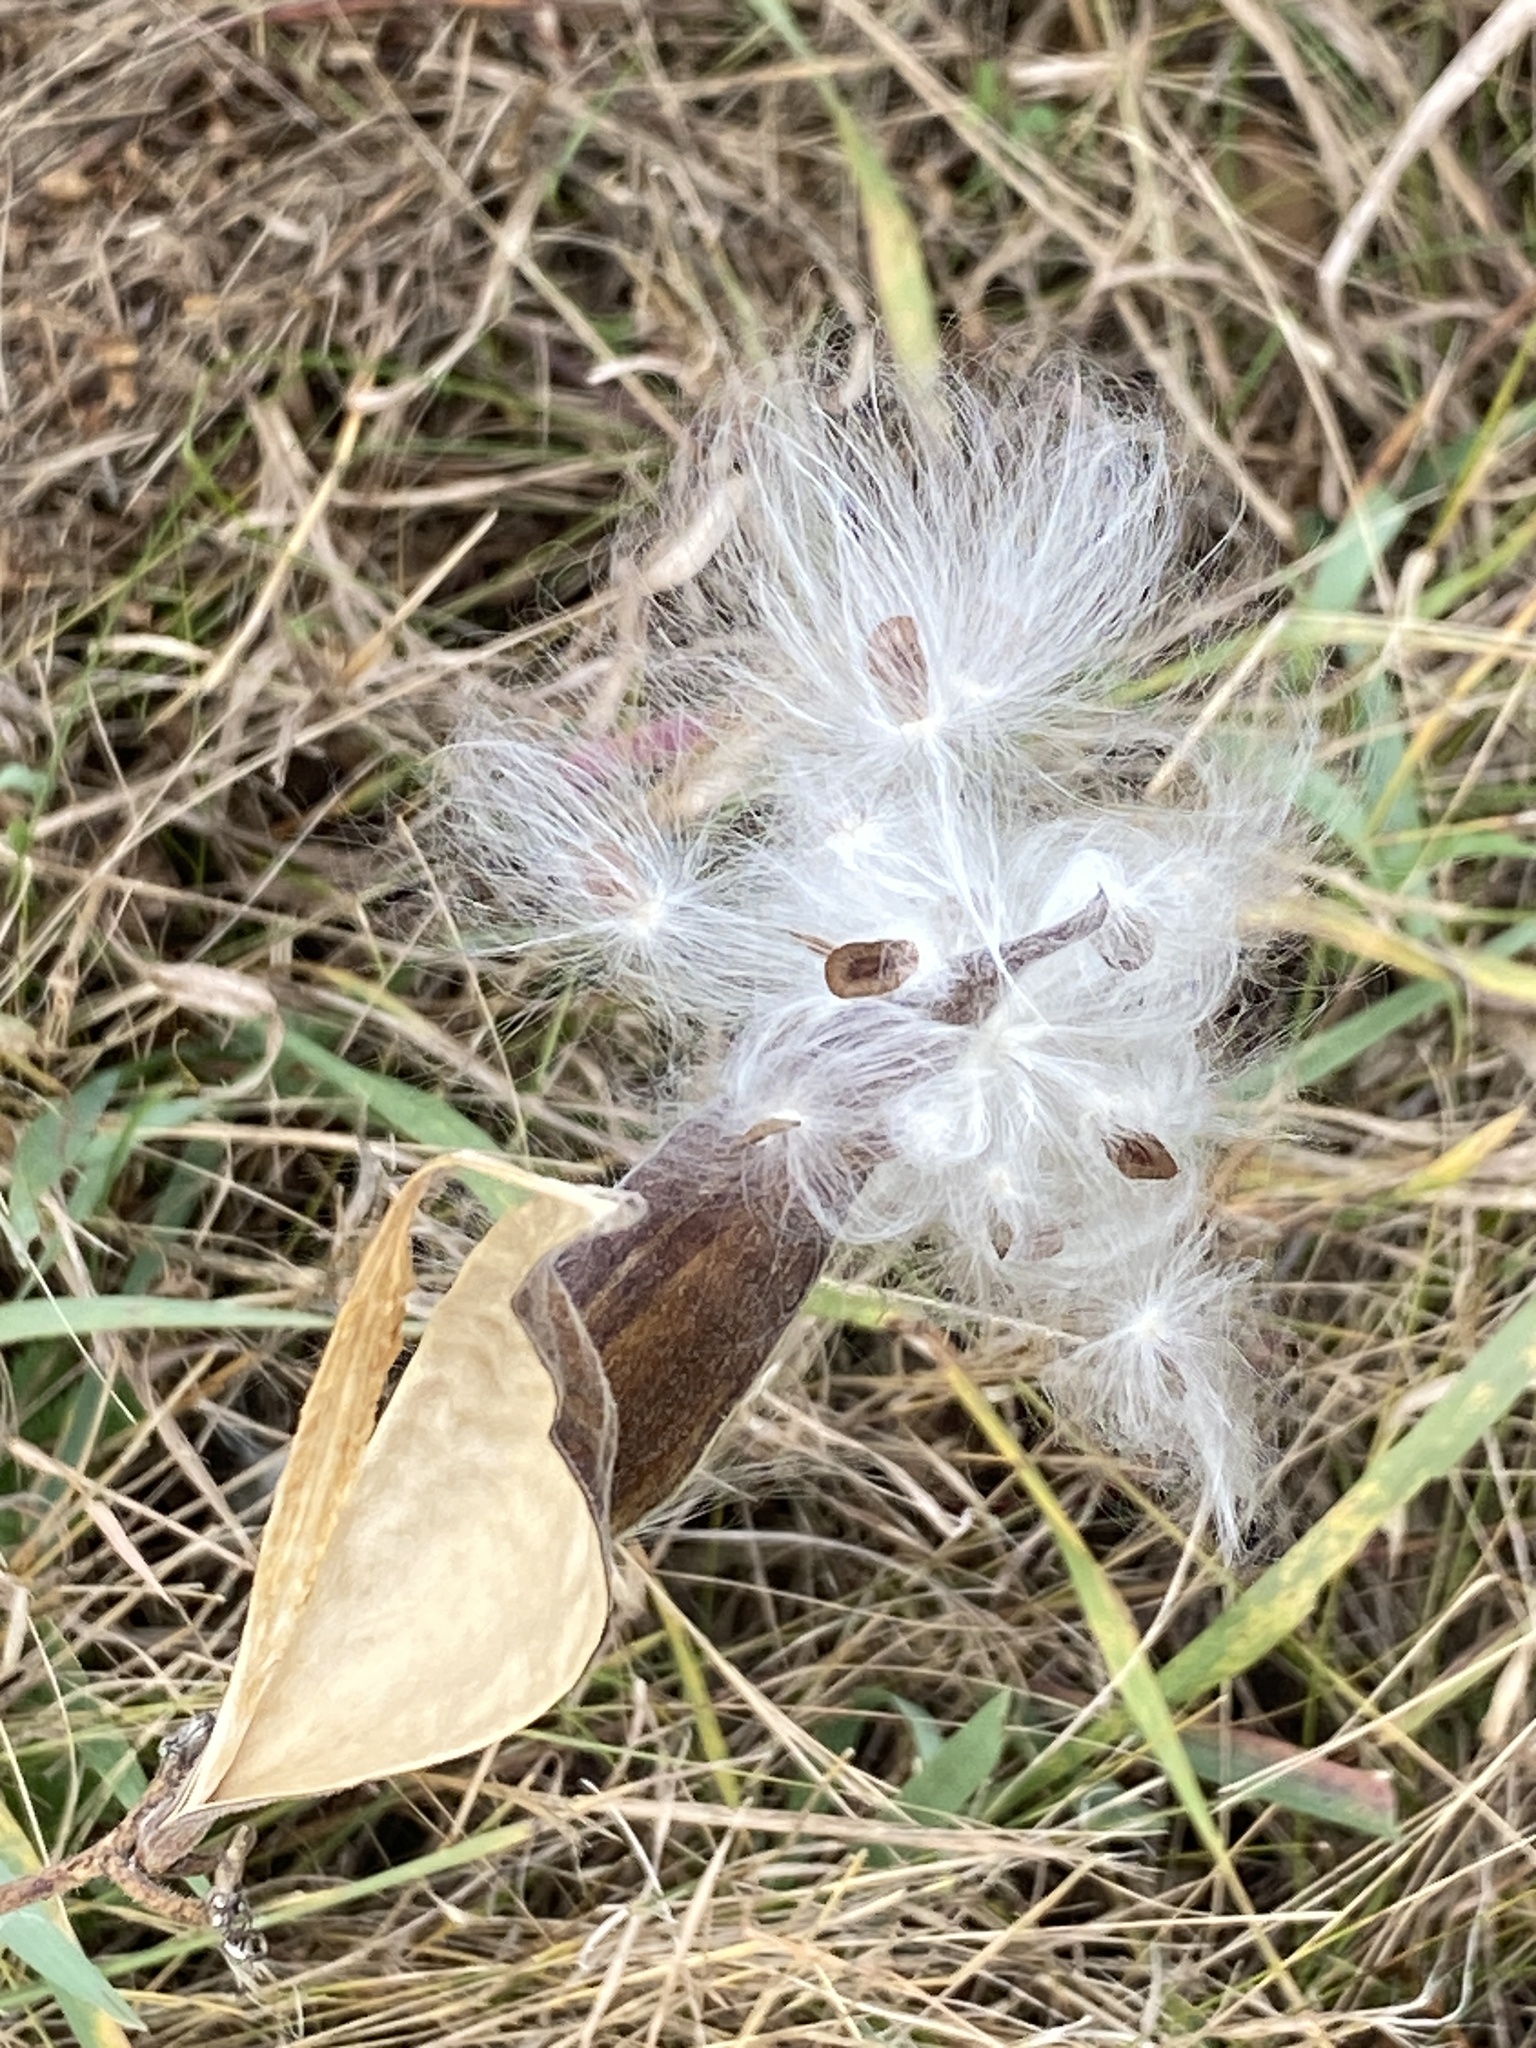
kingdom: Plantae
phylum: Tracheophyta
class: Magnoliopsida
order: Gentianales
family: Apocynaceae
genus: Asclepias
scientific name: Asclepias tuberosa
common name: Butterfly milkweed
